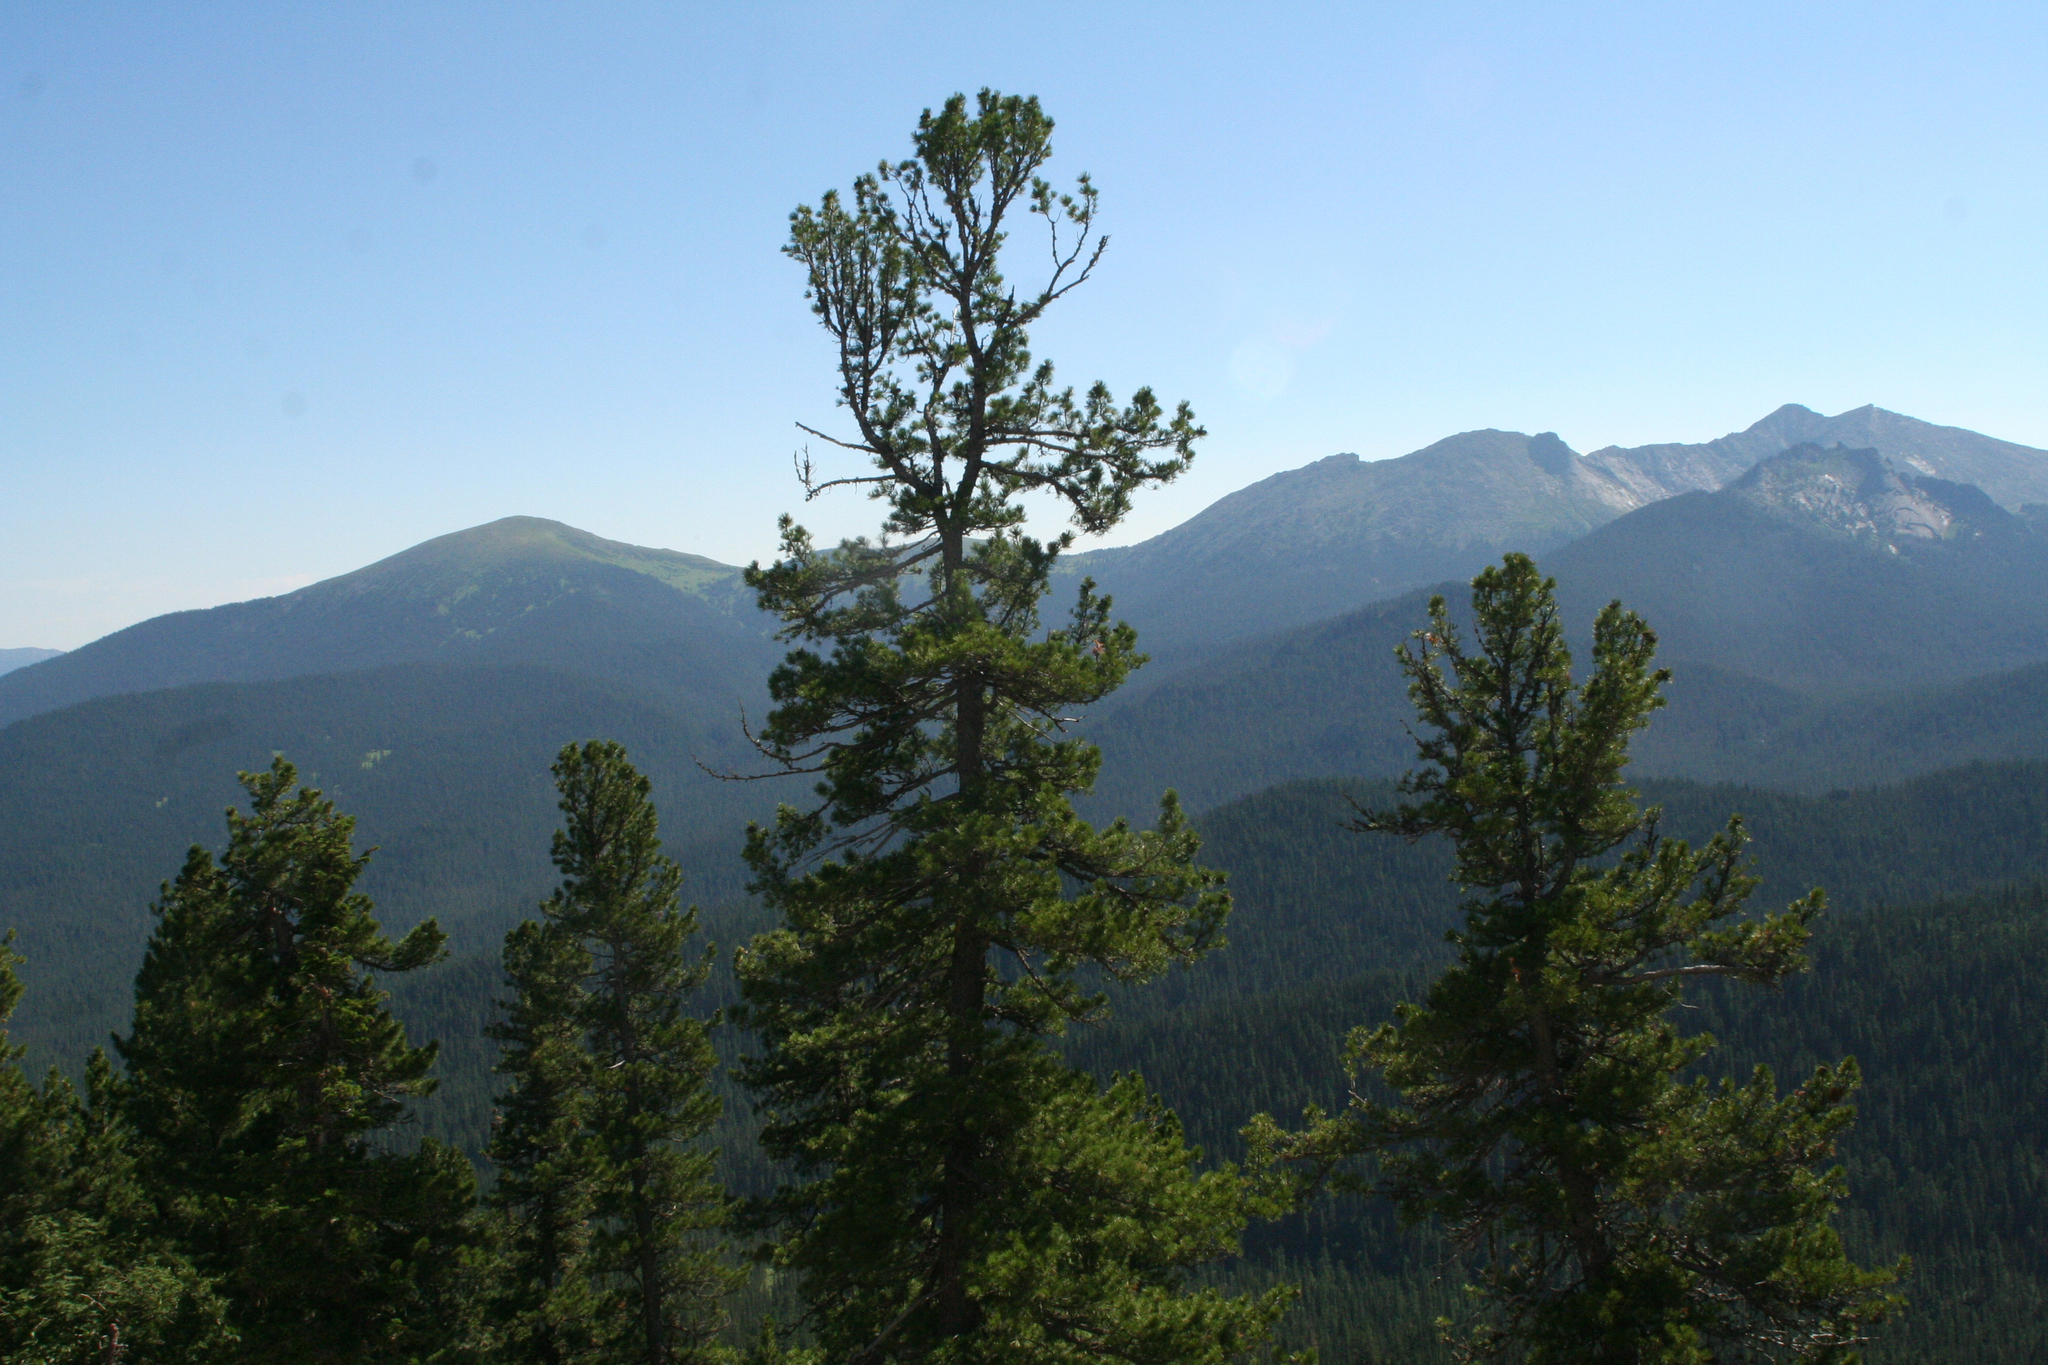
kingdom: Plantae
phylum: Tracheophyta
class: Pinopsida
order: Pinales
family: Pinaceae
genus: Pinus
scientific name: Pinus sibirica
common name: Siberian pine
